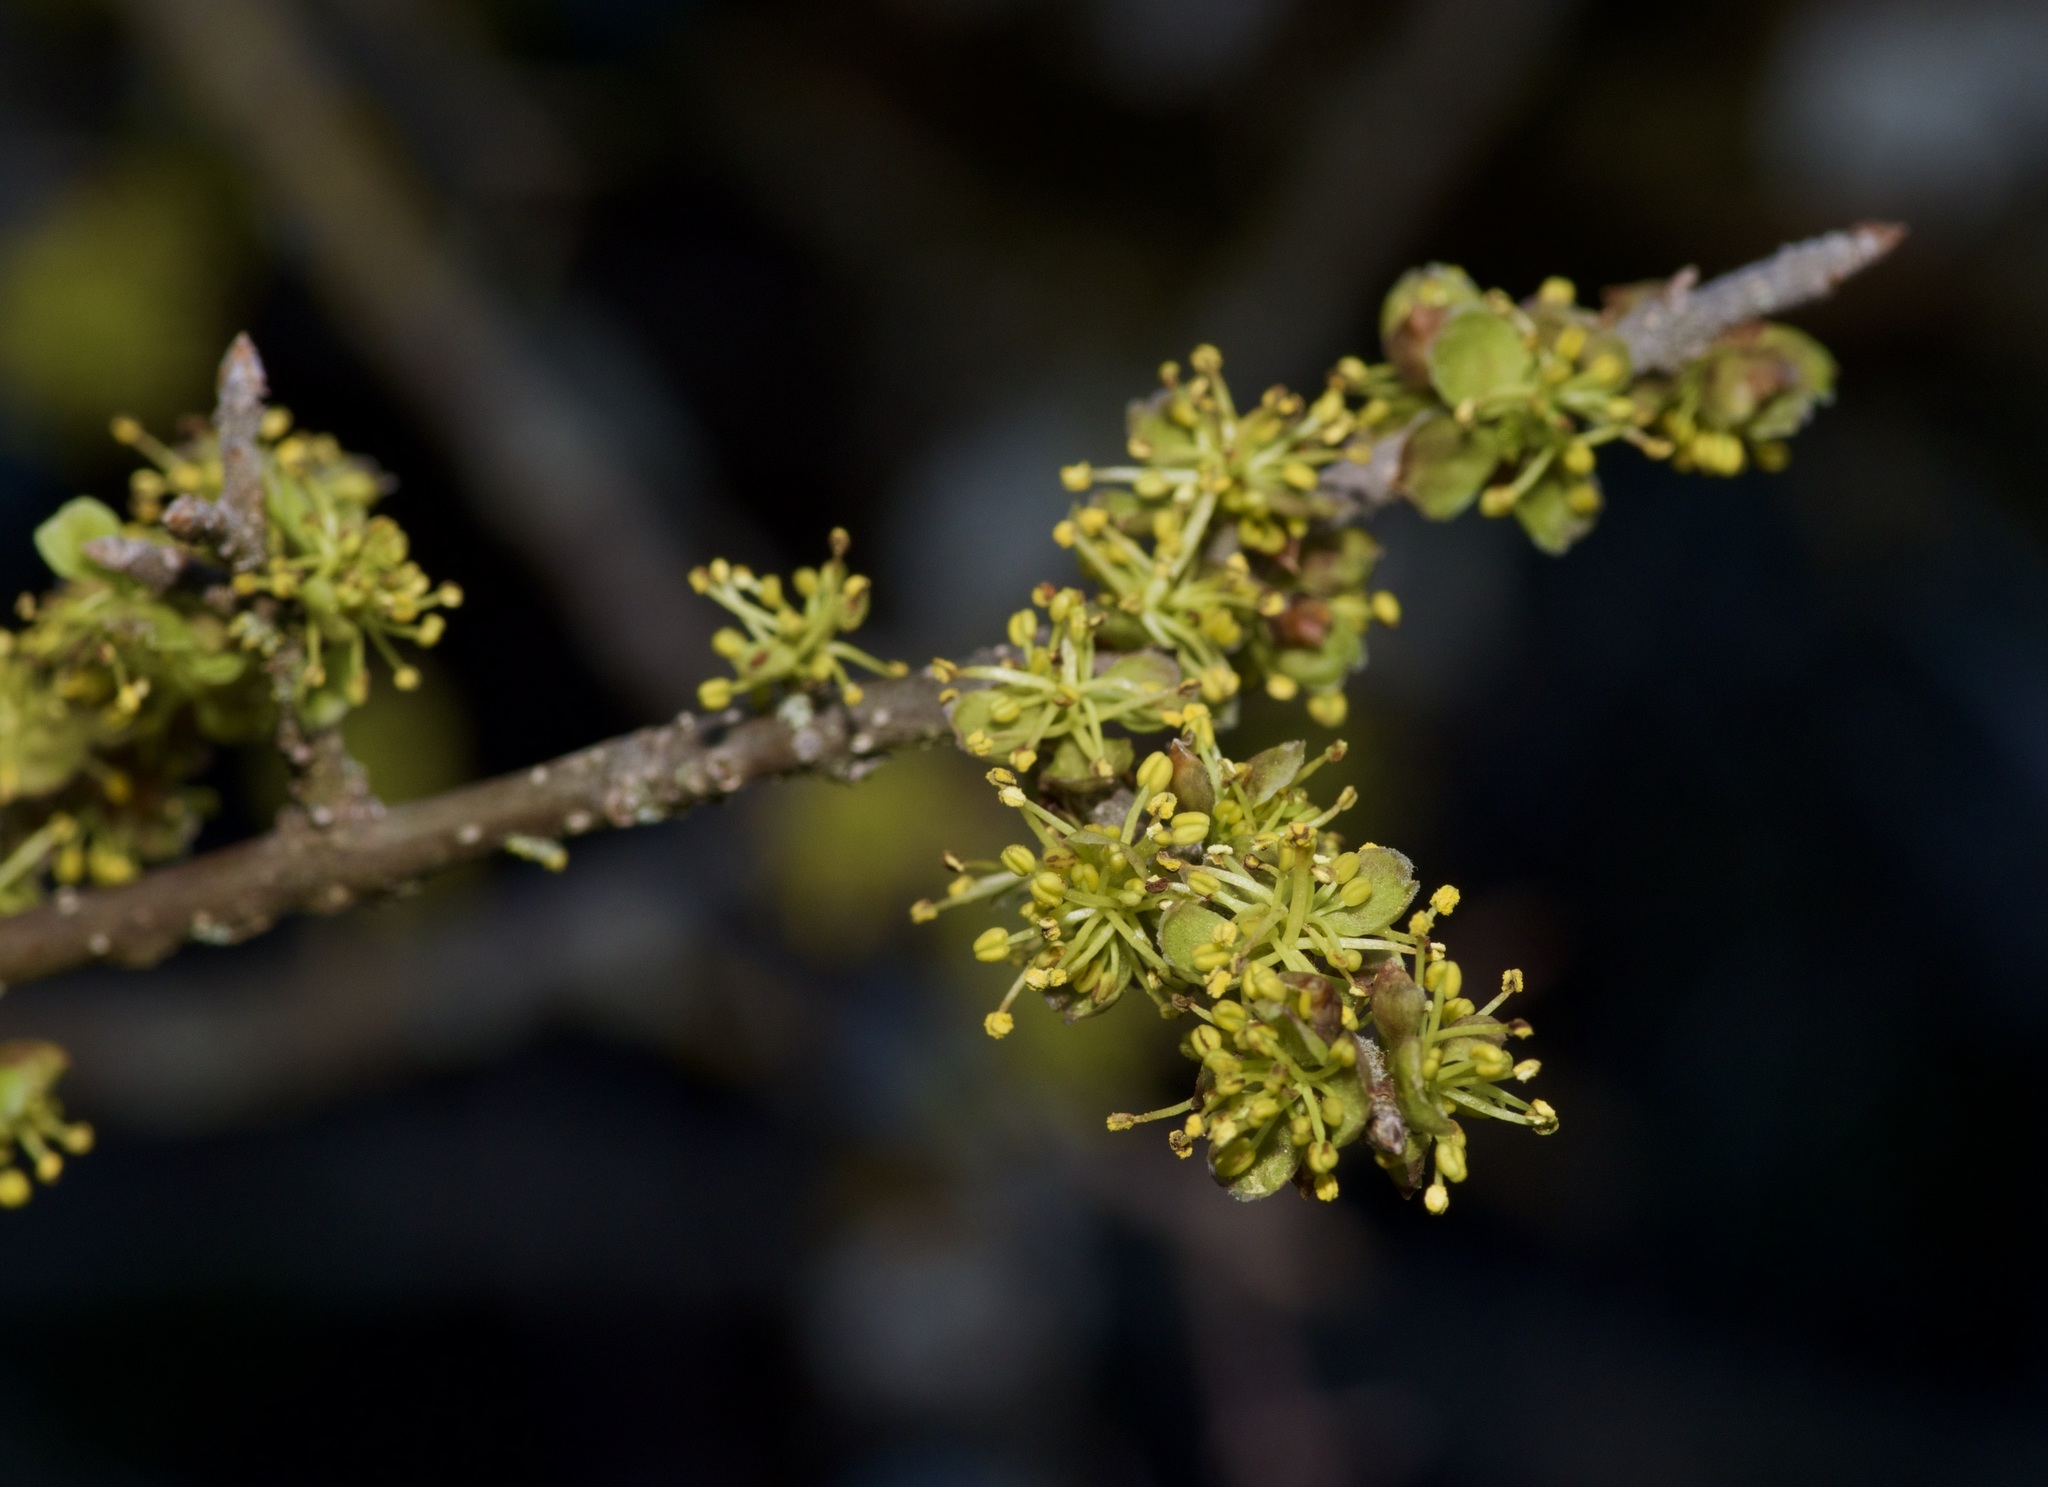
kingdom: Plantae
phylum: Tracheophyta
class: Magnoliopsida
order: Lamiales
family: Oleaceae
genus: Forestiera
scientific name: Forestiera pubescens
